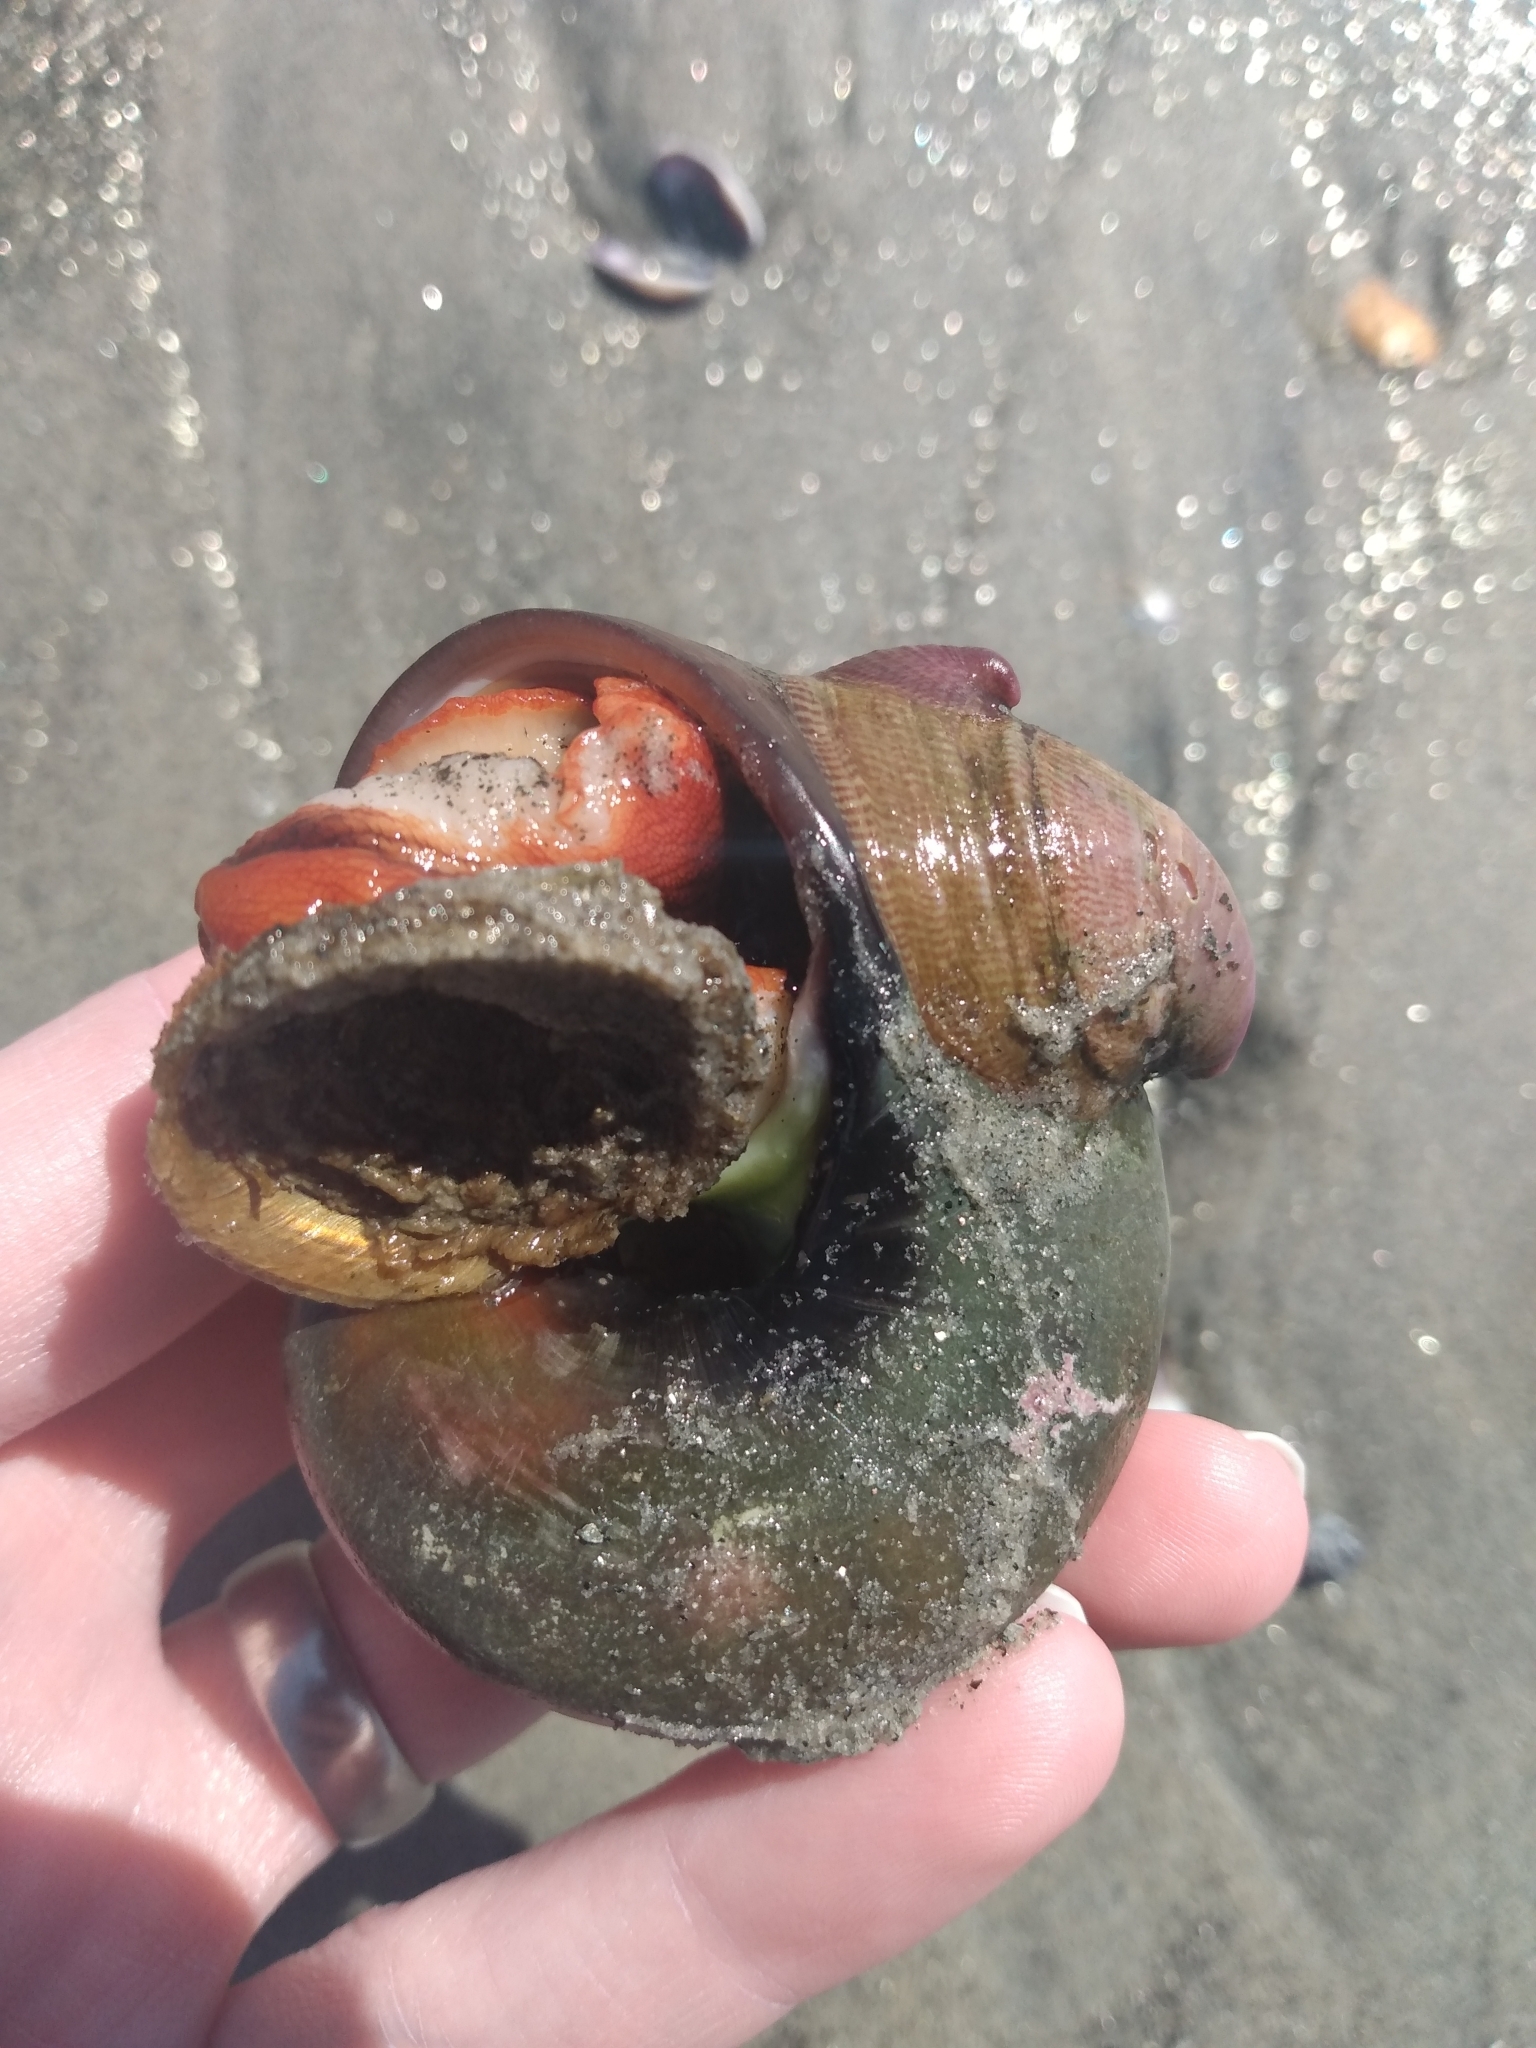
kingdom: Animalia
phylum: Mollusca
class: Gastropoda
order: Trochida
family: Tegulidae
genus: Norrisia
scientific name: Norrisia norrisii
